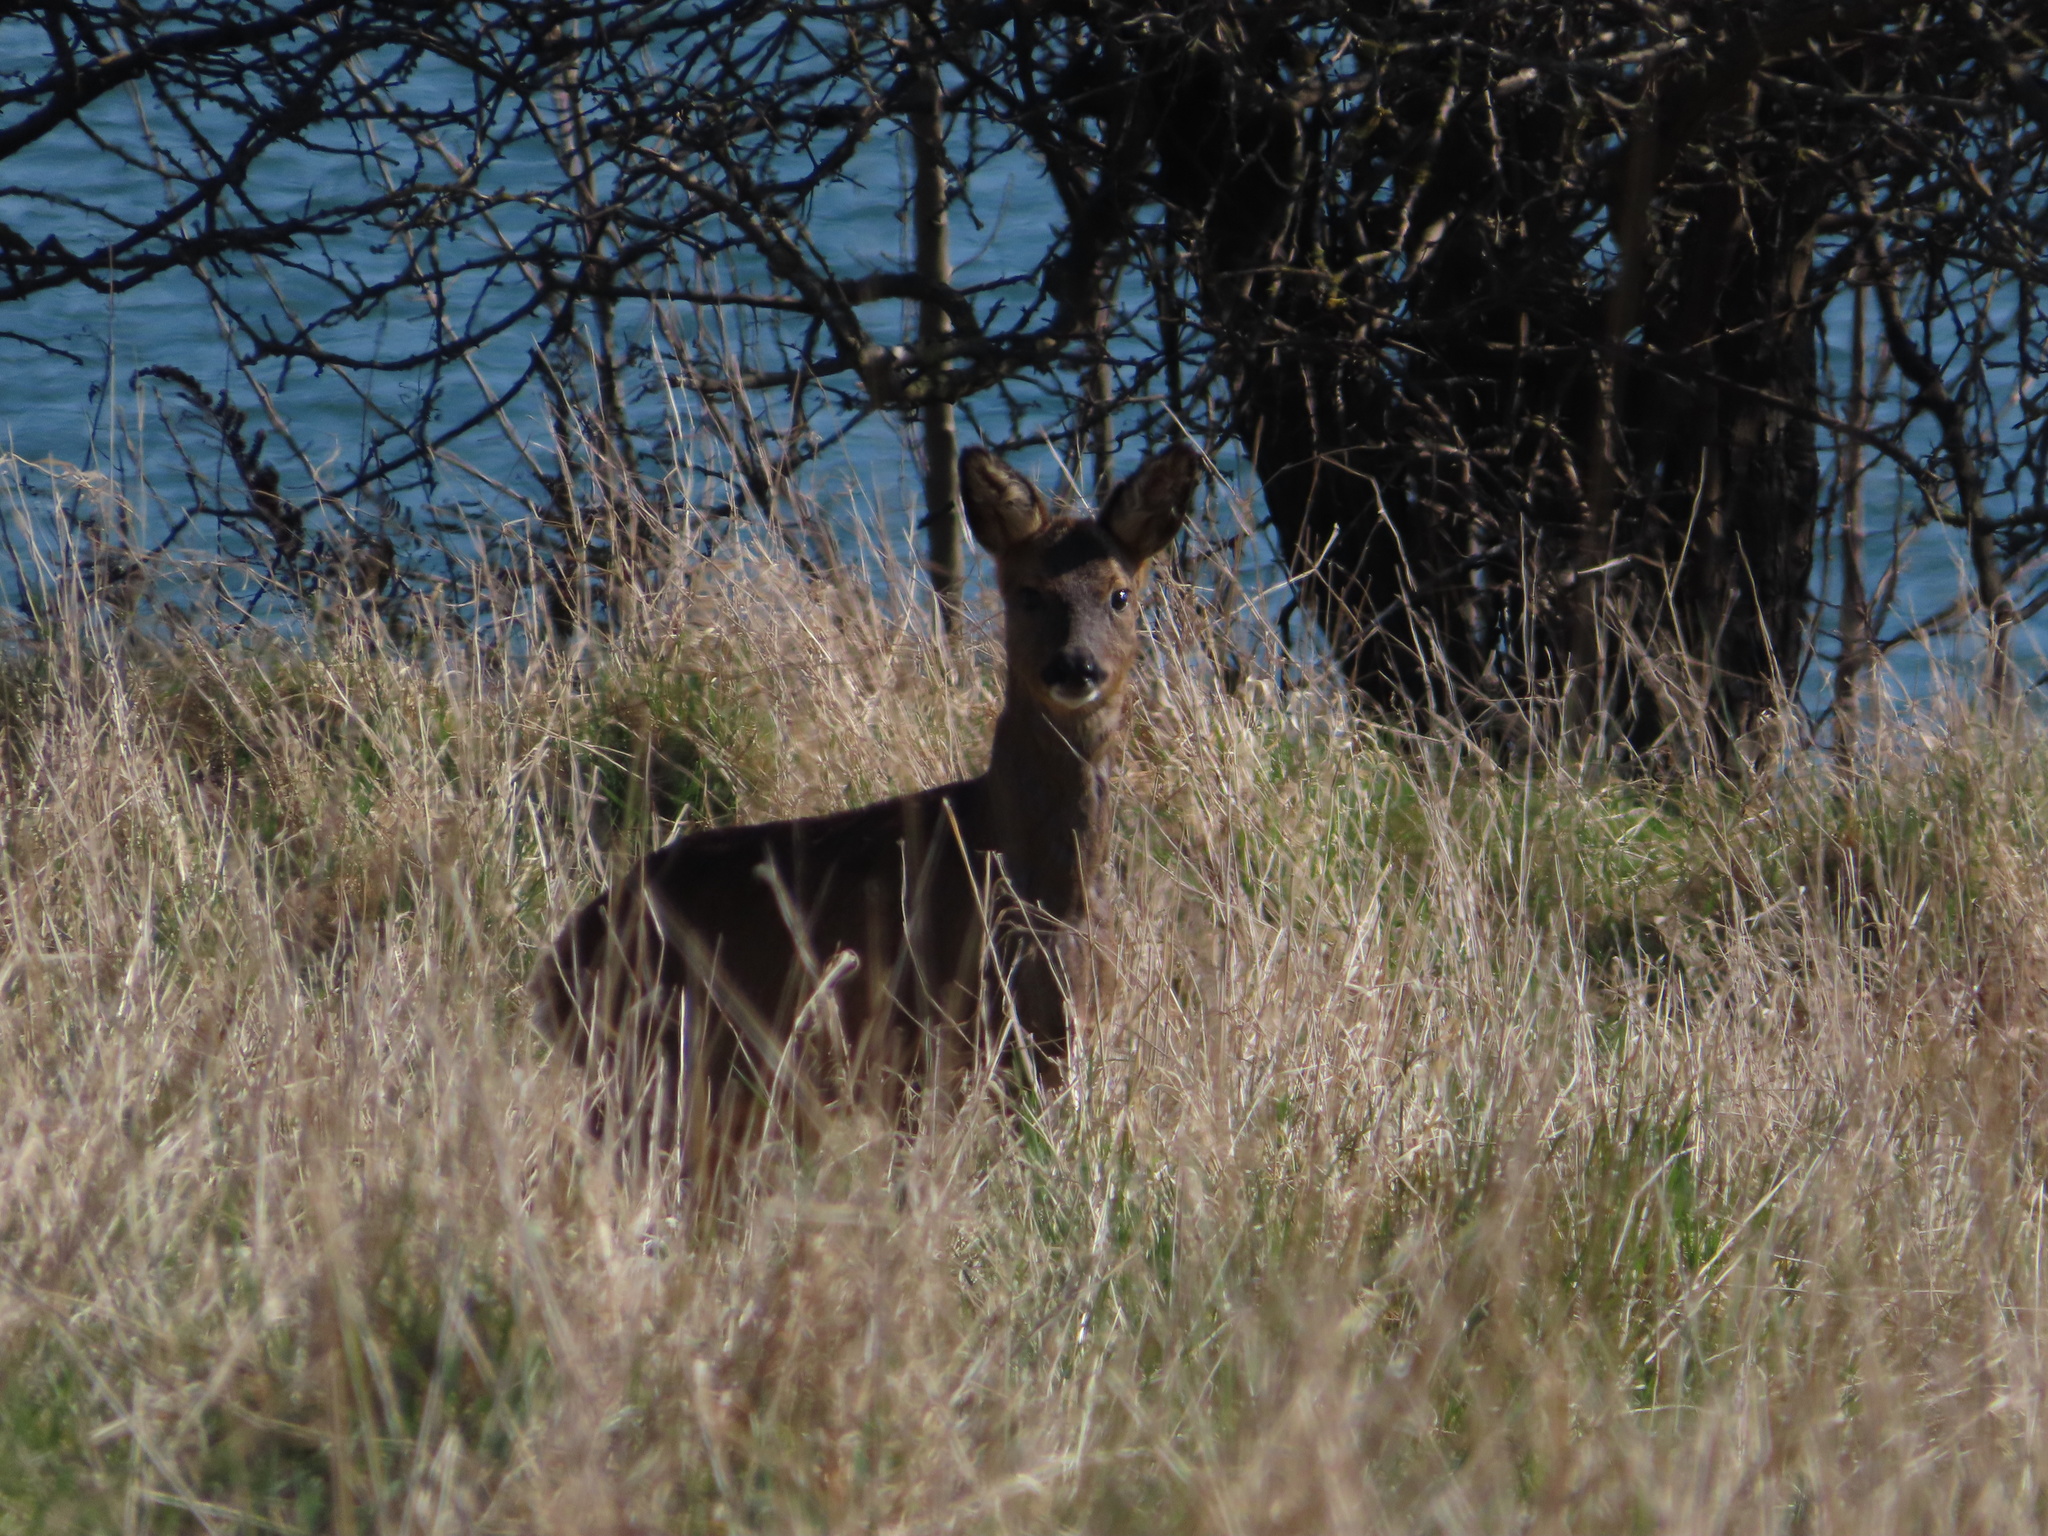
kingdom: Animalia
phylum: Chordata
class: Mammalia
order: Artiodactyla
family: Cervidae
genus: Capreolus
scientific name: Capreolus capreolus
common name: Western roe deer
